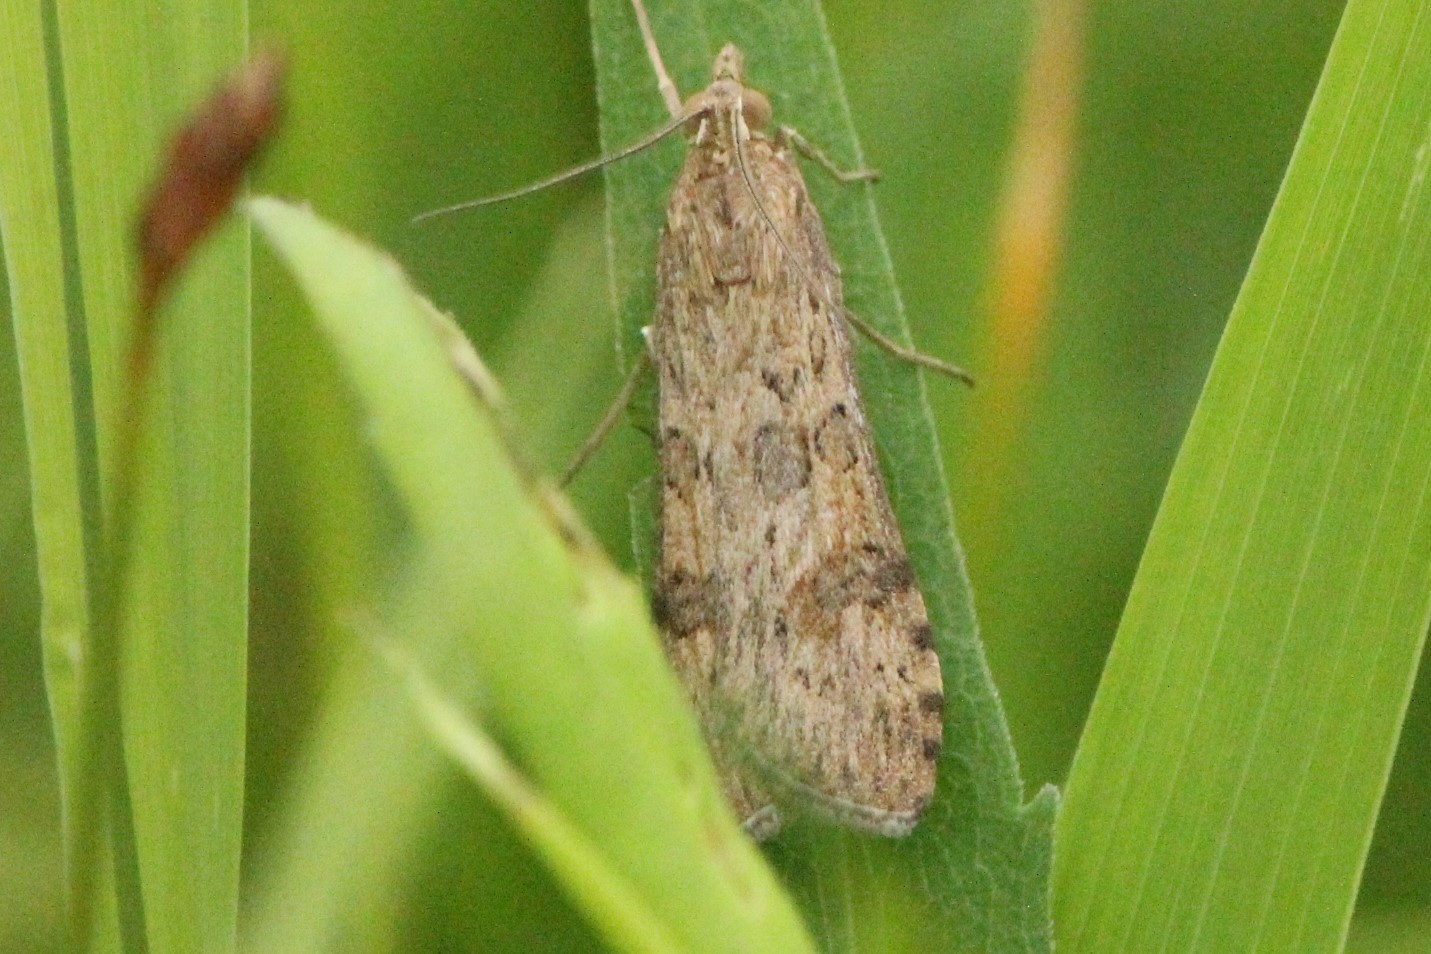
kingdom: Animalia
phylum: Arthropoda
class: Insecta
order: Lepidoptera
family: Crambidae
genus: Nomophila
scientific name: Nomophila nearctica
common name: American rush veneer
